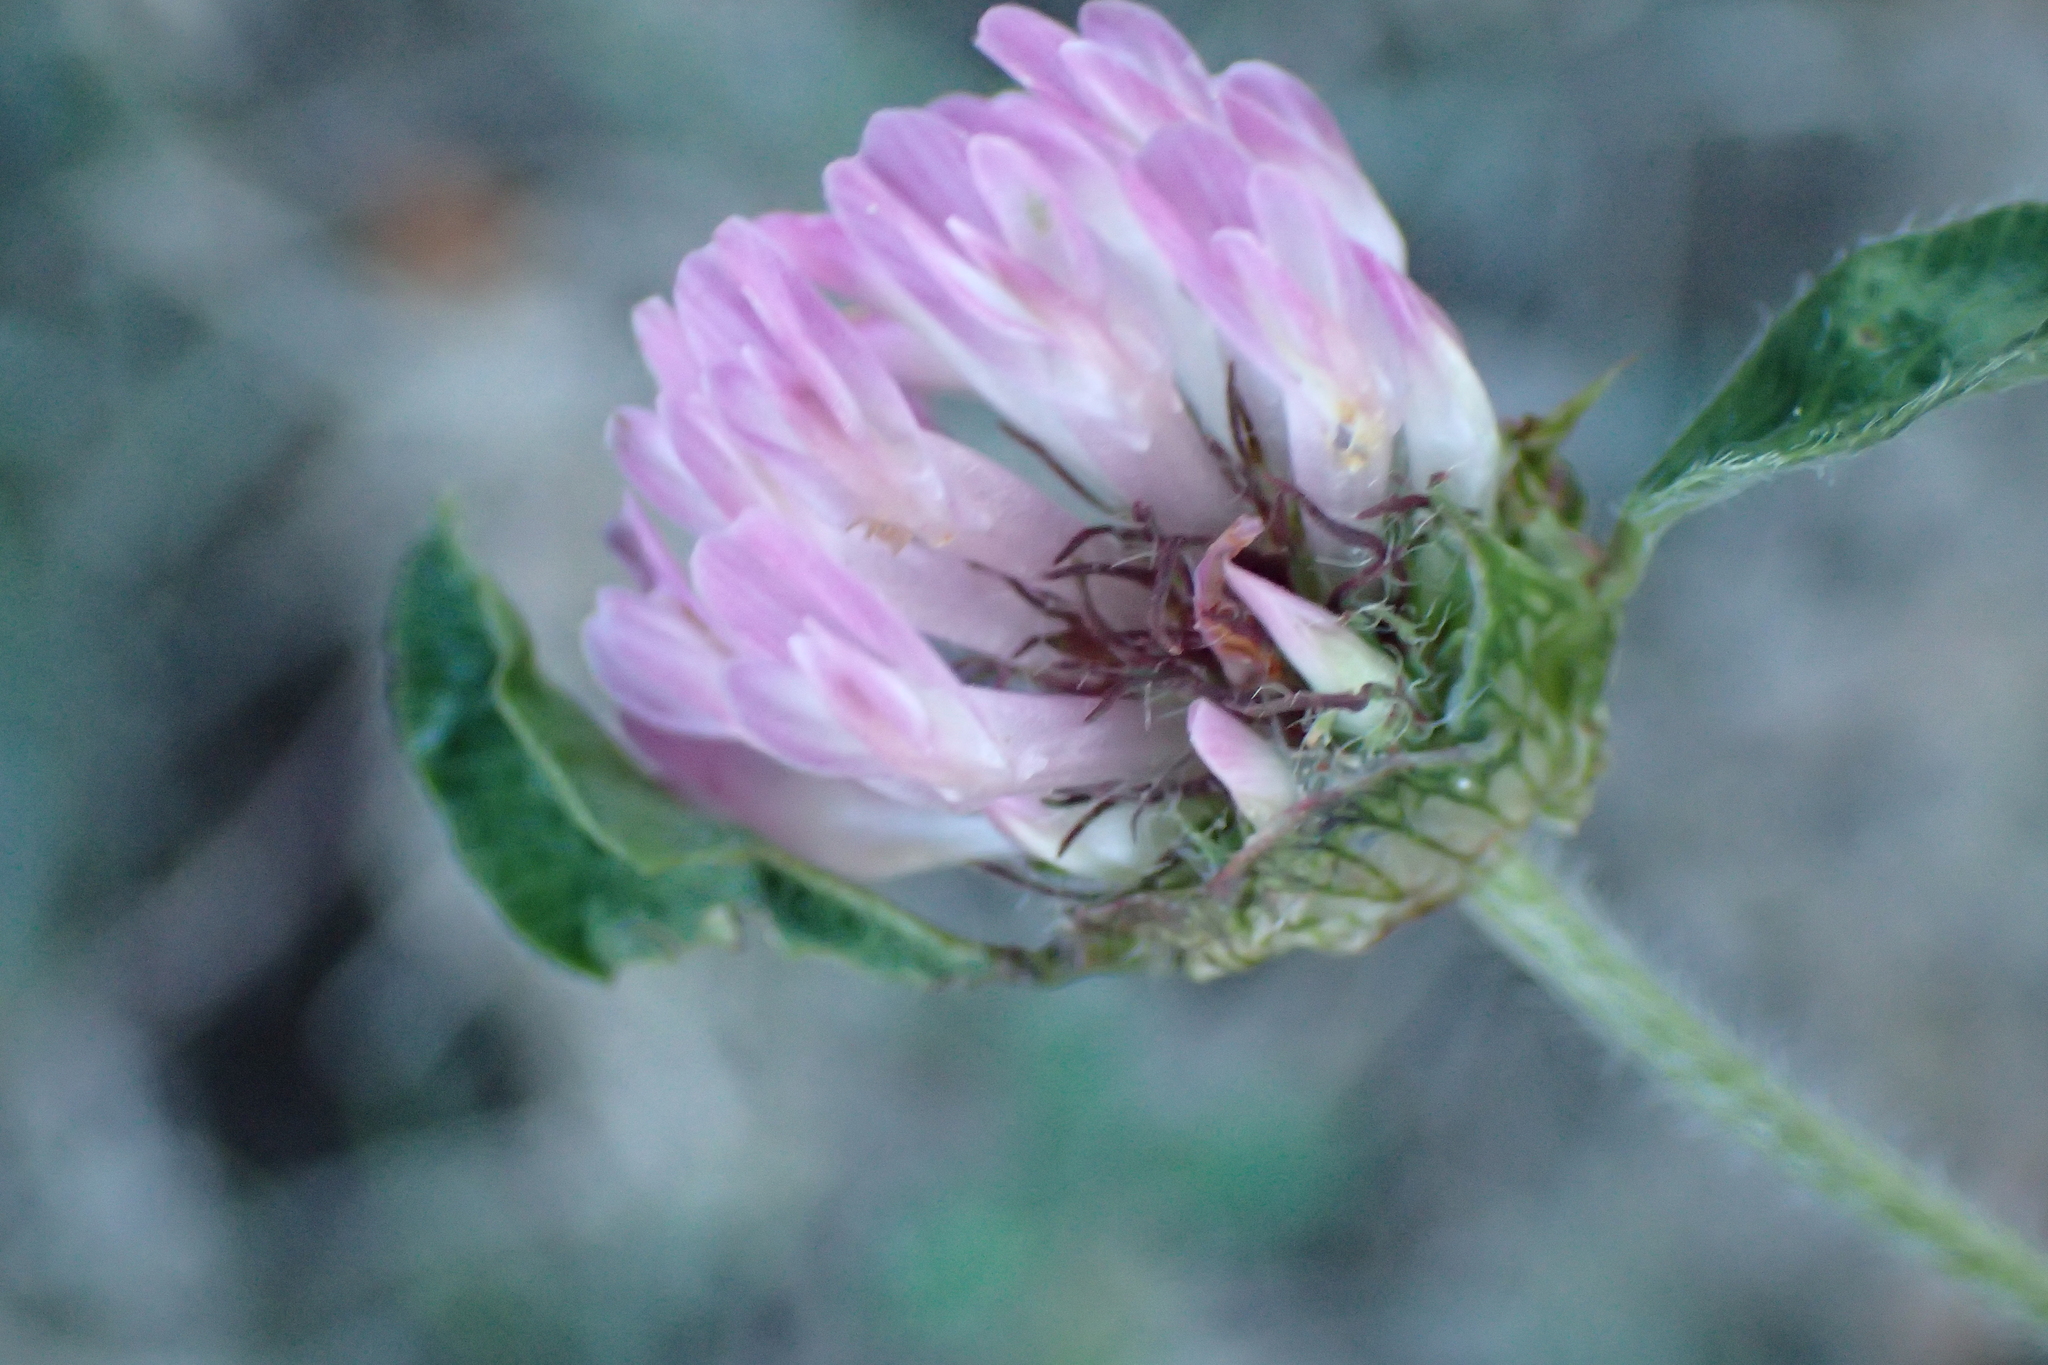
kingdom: Plantae
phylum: Tracheophyta
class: Magnoliopsida
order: Fabales
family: Fabaceae
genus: Trifolium
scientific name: Trifolium pratense
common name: Red clover
